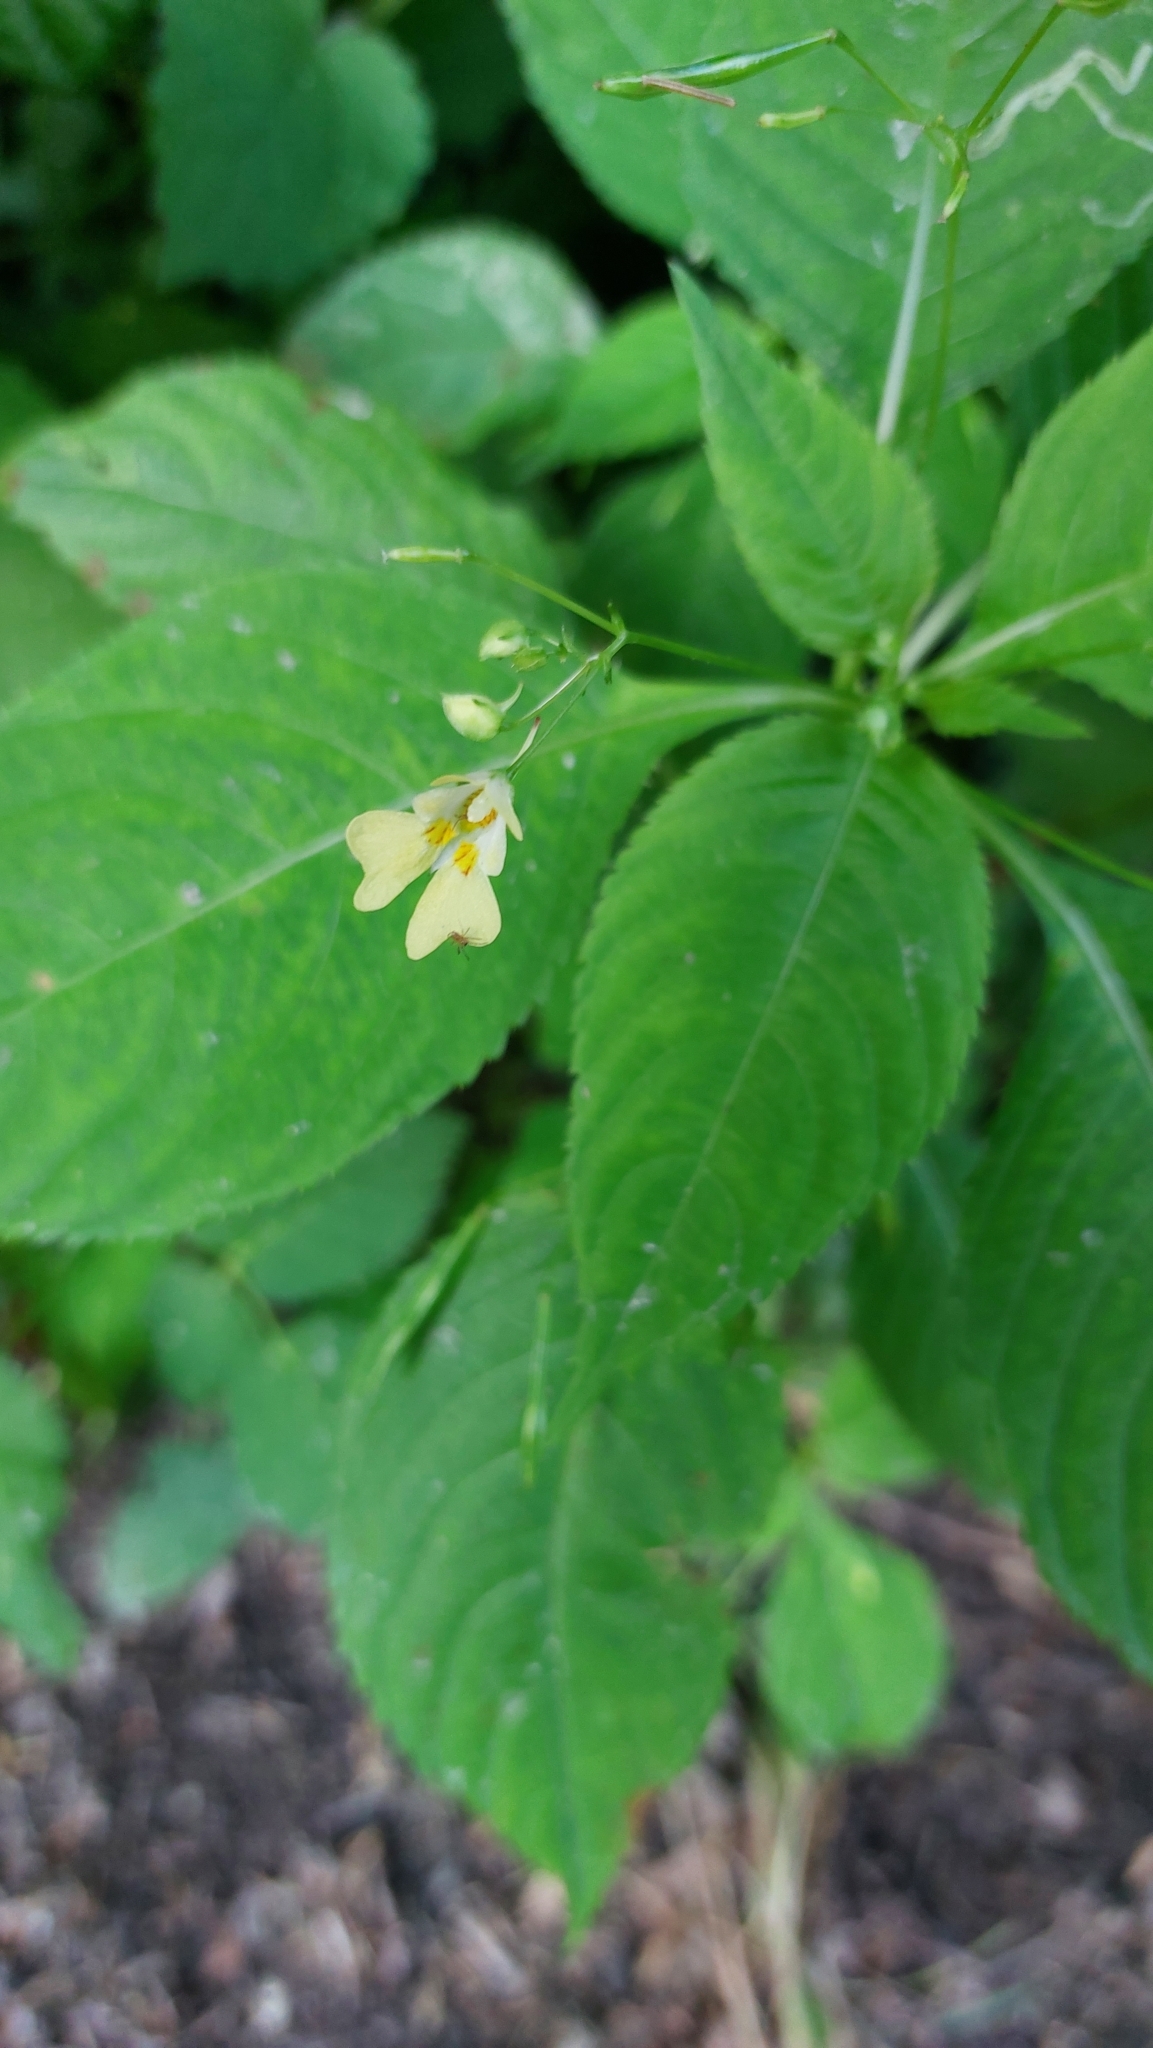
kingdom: Plantae
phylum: Tracheophyta
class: Magnoliopsida
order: Ericales
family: Balsaminaceae
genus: Impatiens
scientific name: Impatiens parviflora
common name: Small balsam
